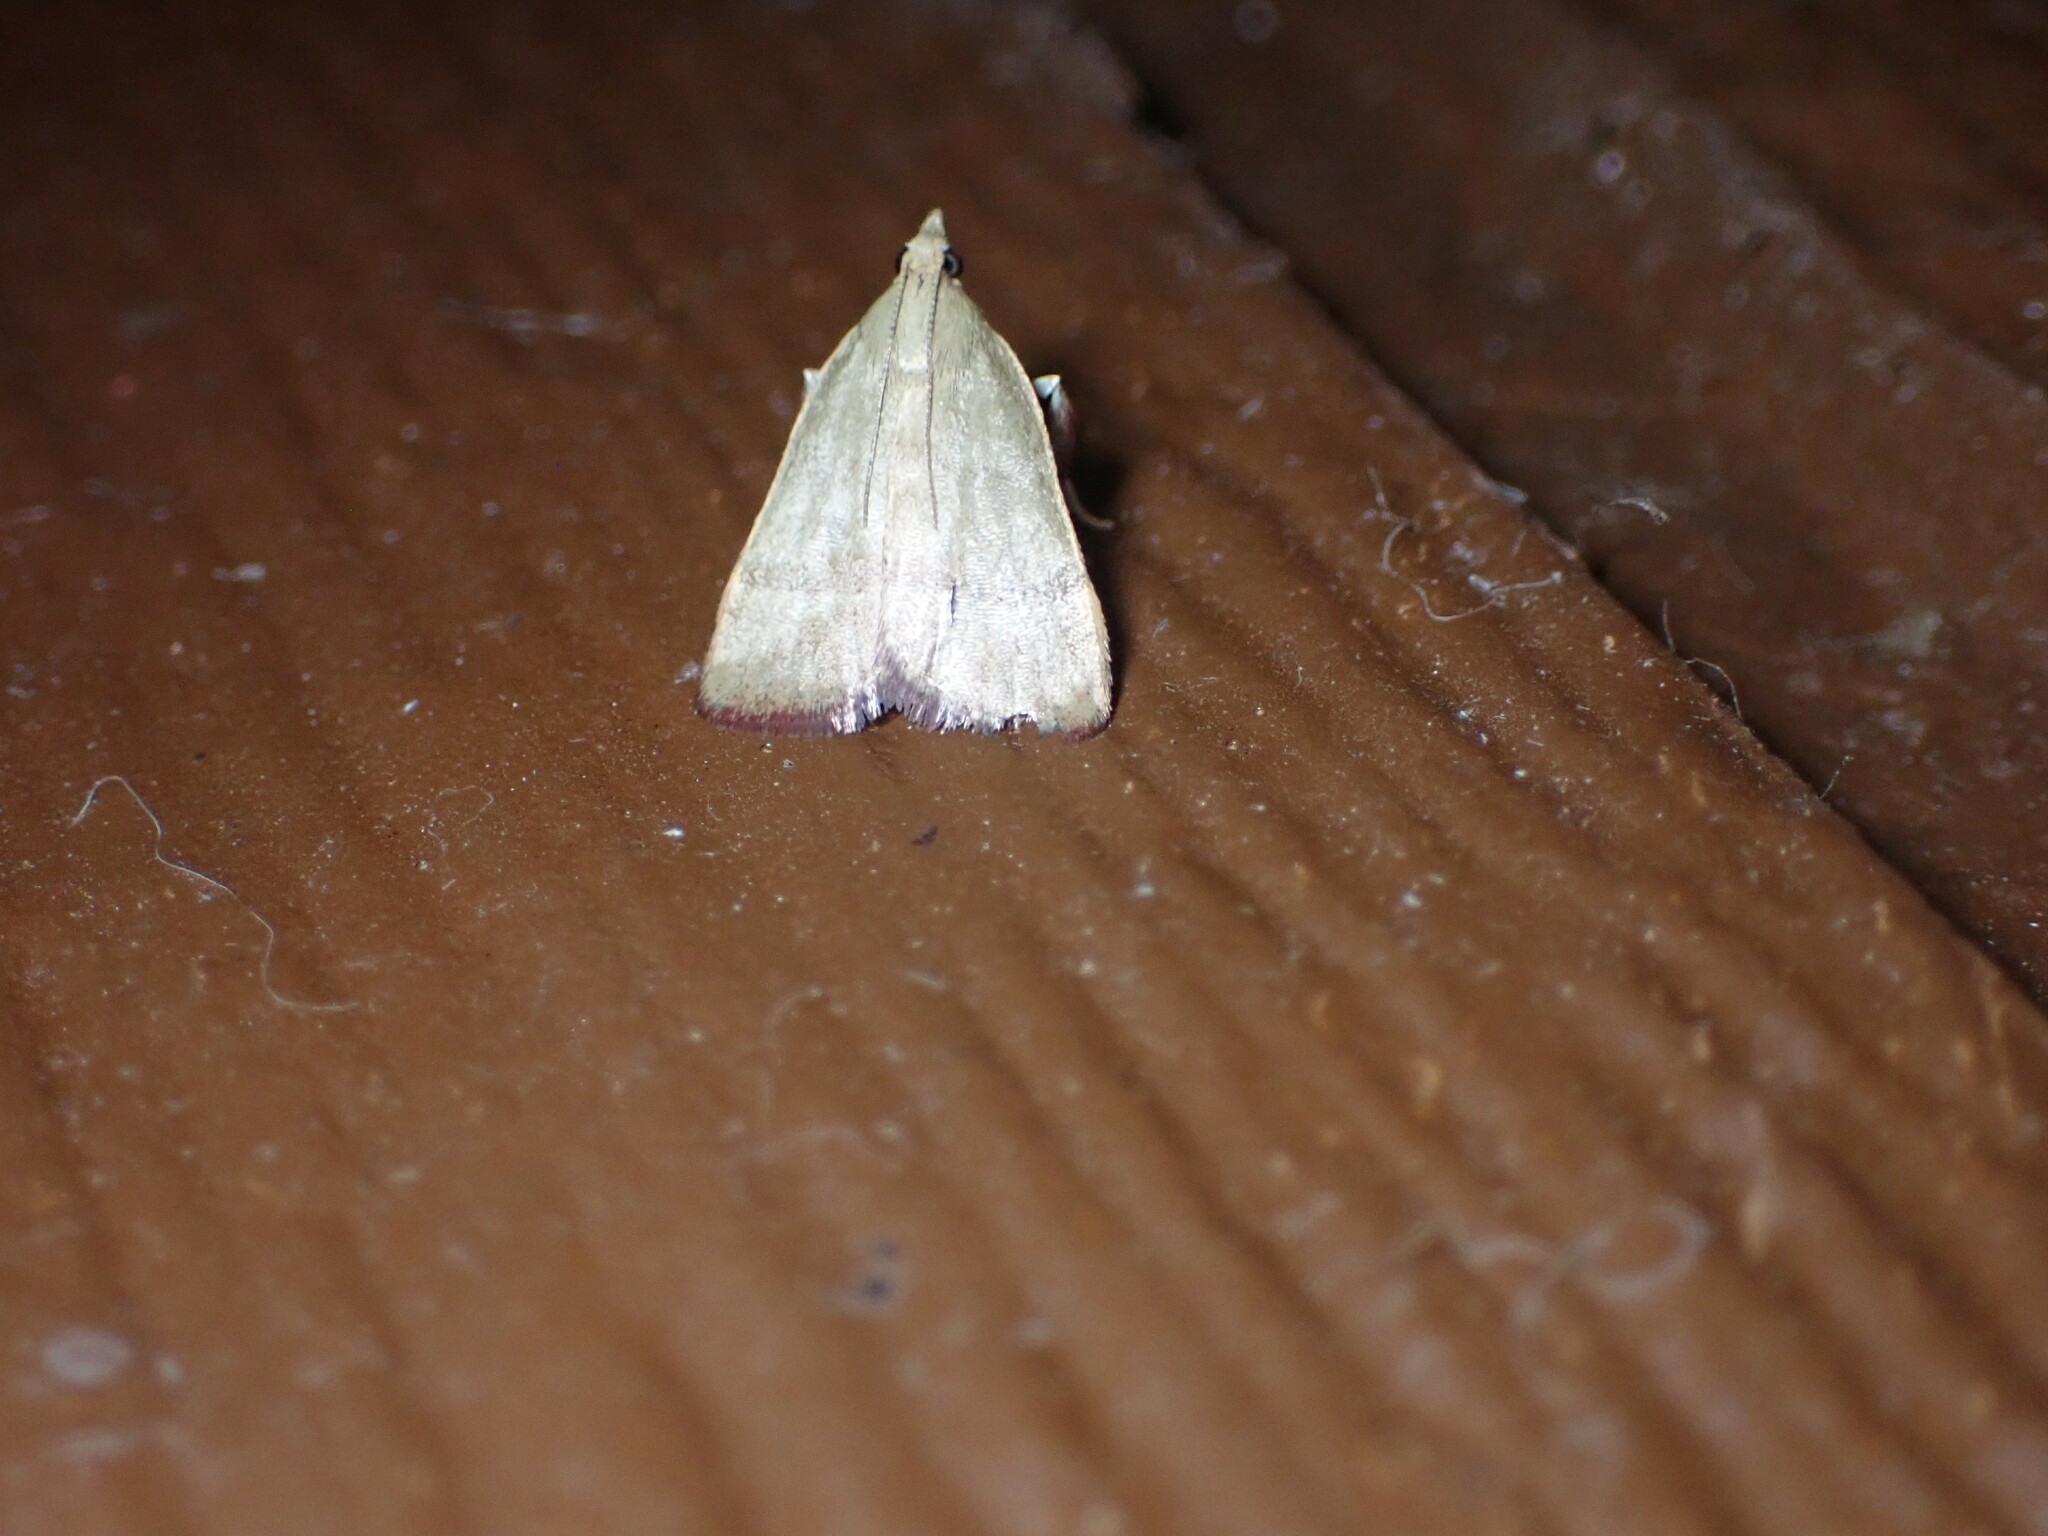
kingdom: Animalia
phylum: Arthropoda
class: Insecta
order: Lepidoptera
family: Pyralidae
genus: Condylolomia
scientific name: Condylolomia participialis
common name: Drab condylolomia moth
